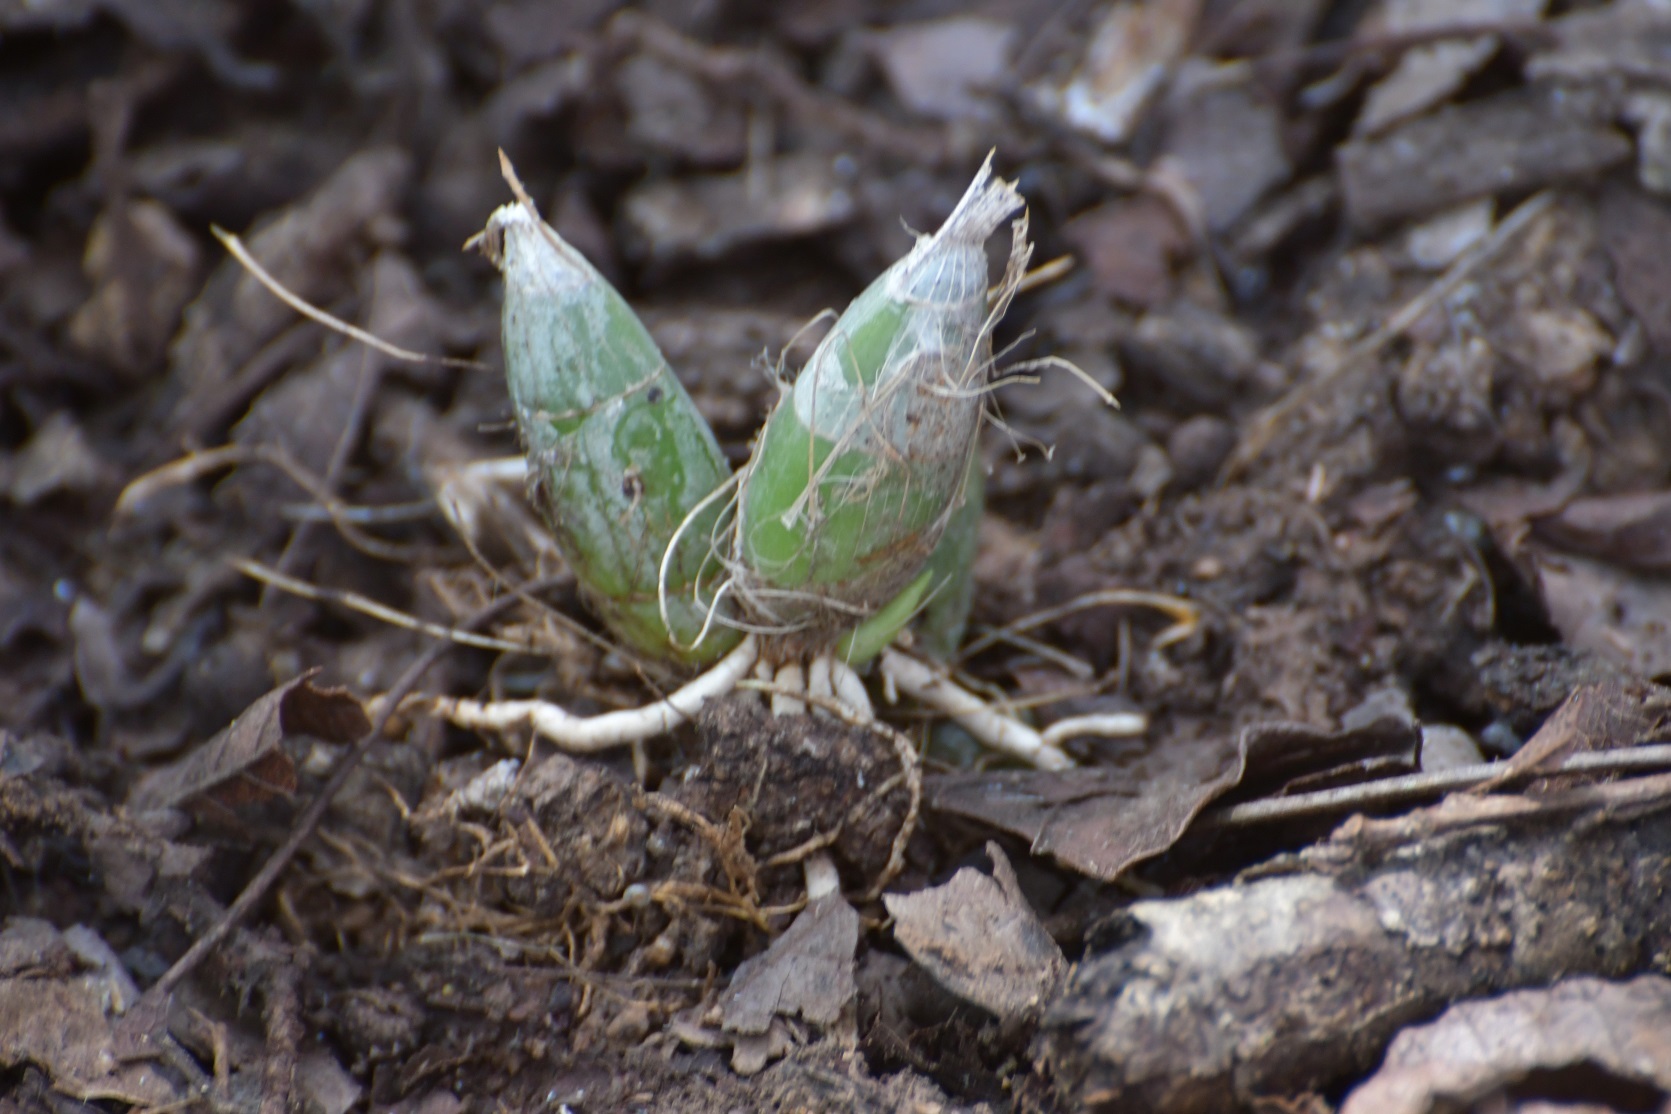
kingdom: Plantae
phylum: Tracheophyta
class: Liliopsida
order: Asparagales
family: Orchidaceae
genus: Clowesia
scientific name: Clowesia russelliana
